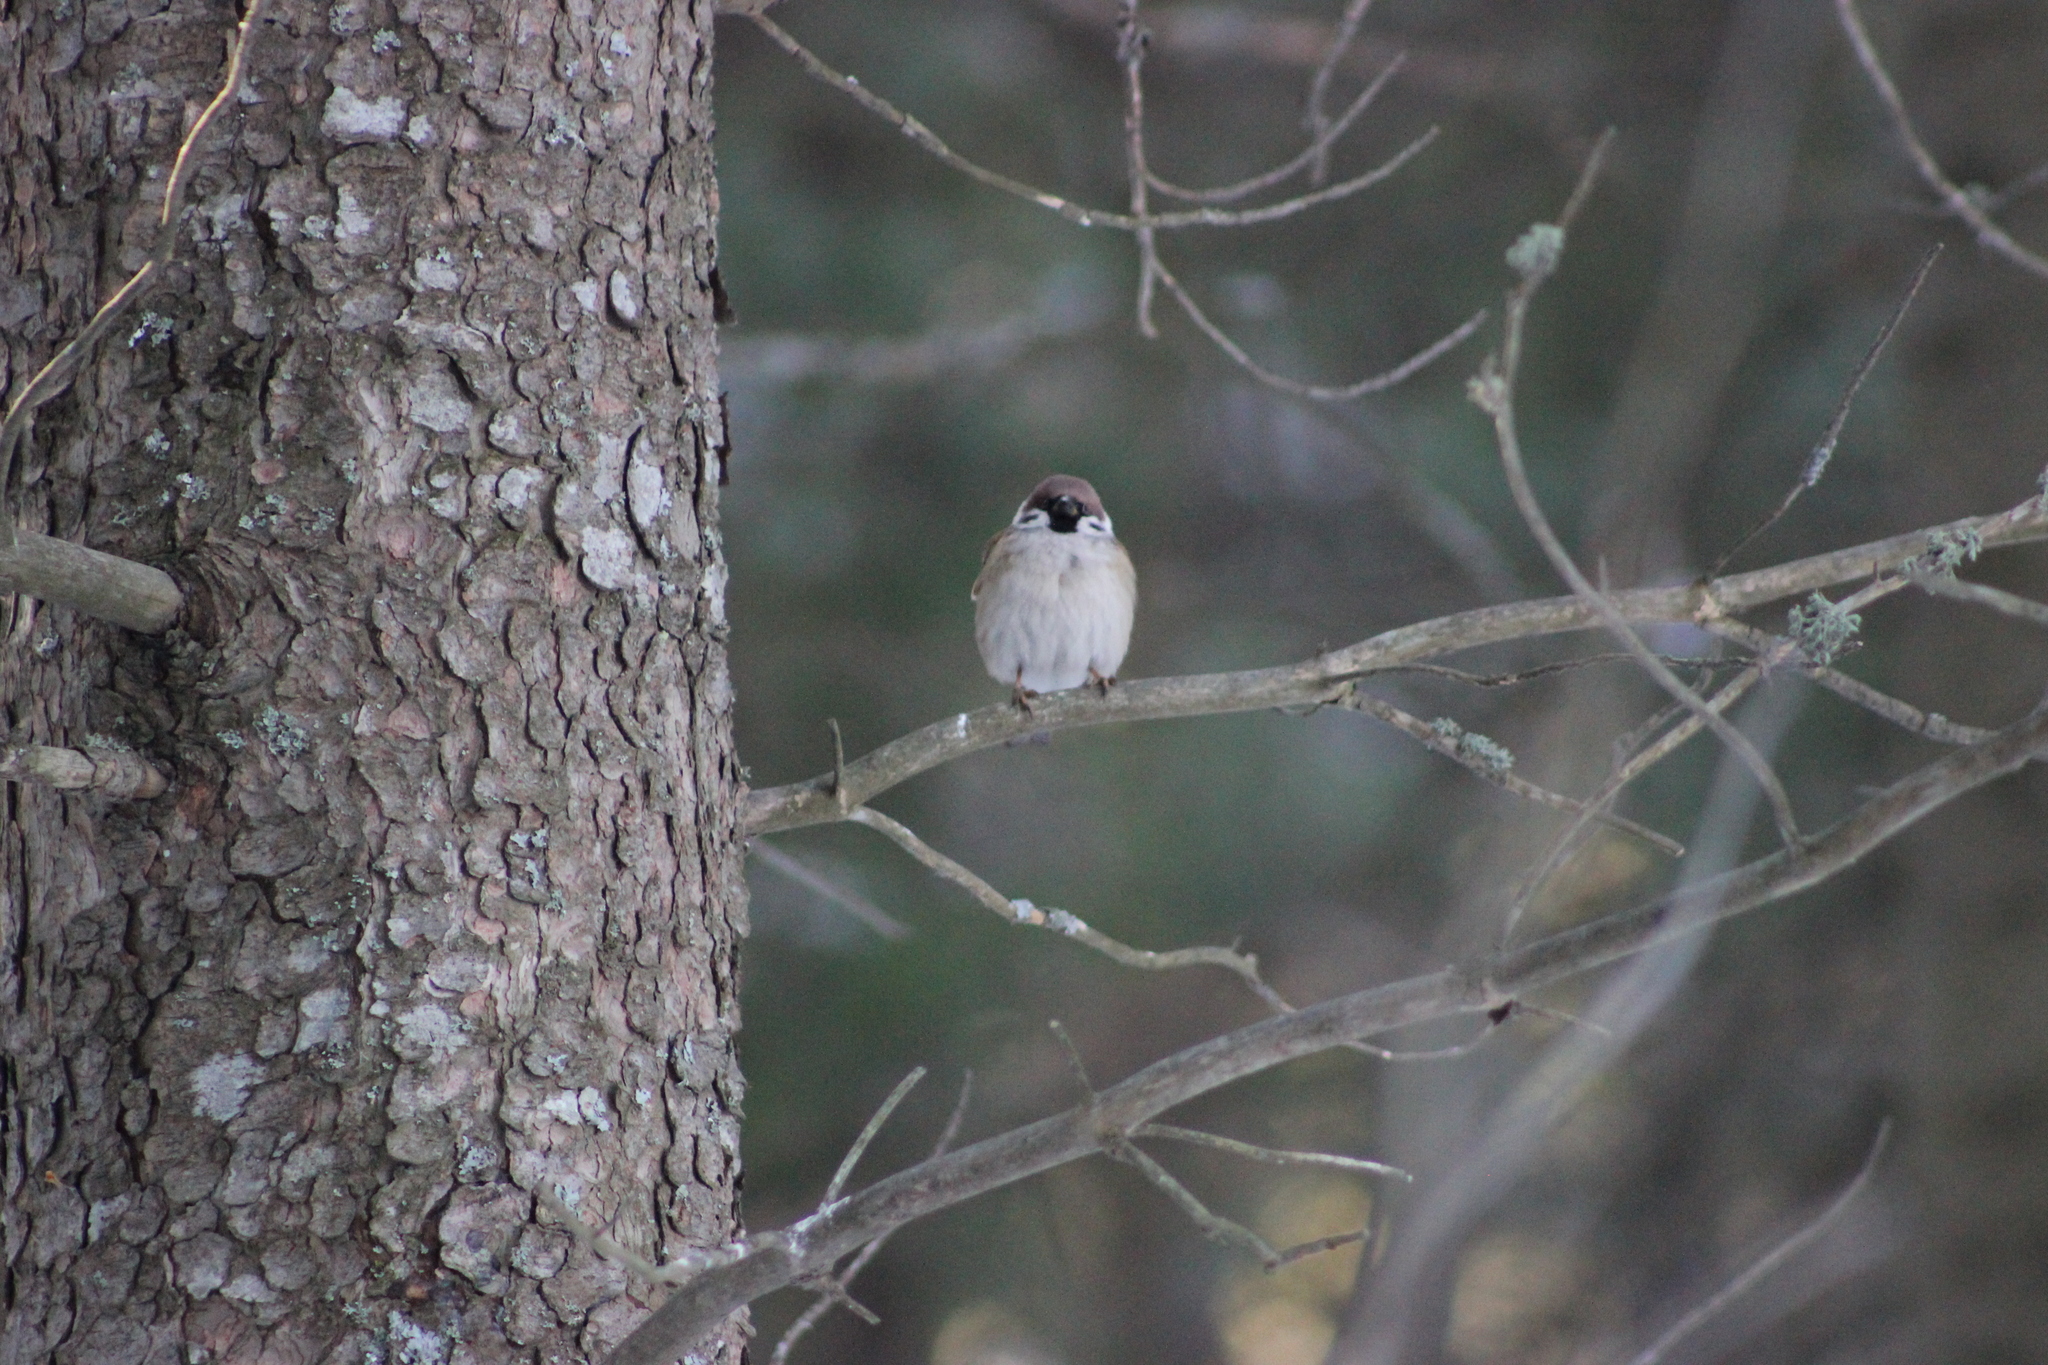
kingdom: Animalia
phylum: Chordata
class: Aves
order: Passeriformes
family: Passeridae
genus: Passer
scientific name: Passer montanus
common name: Eurasian tree sparrow
